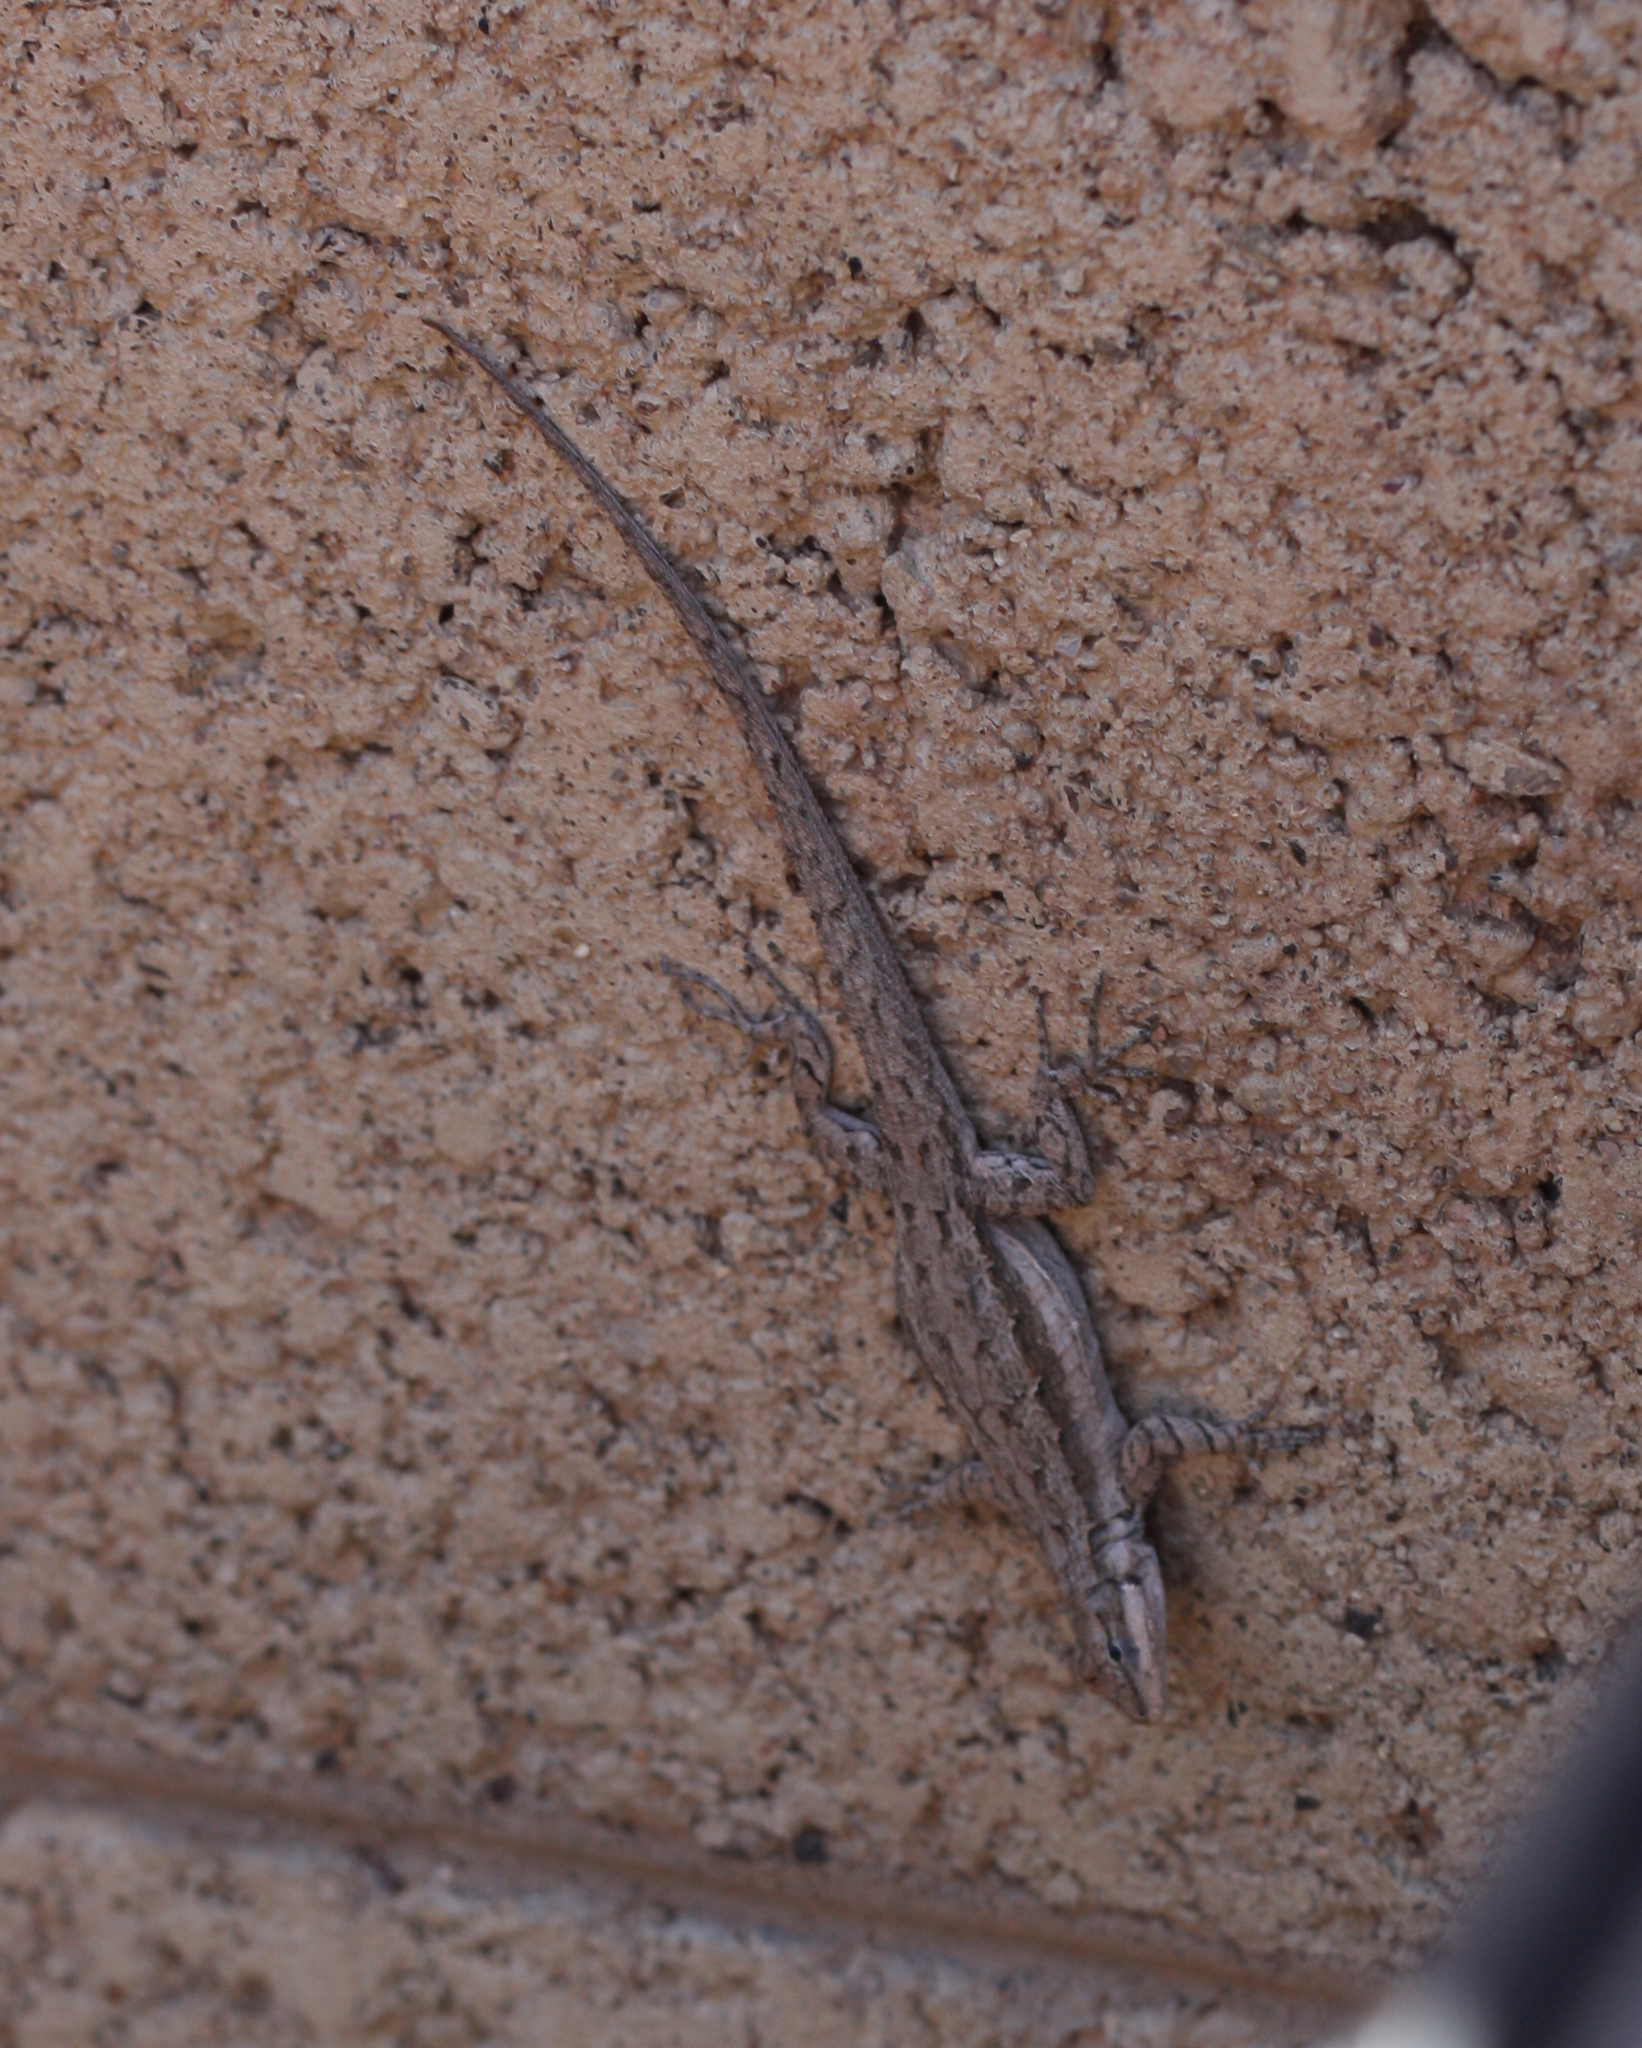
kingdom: Animalia
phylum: Chordata
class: Squamata
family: Phrynosomatidae
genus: Urosaurus
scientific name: Urosaurus ornatus
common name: Ornate tree lizard
